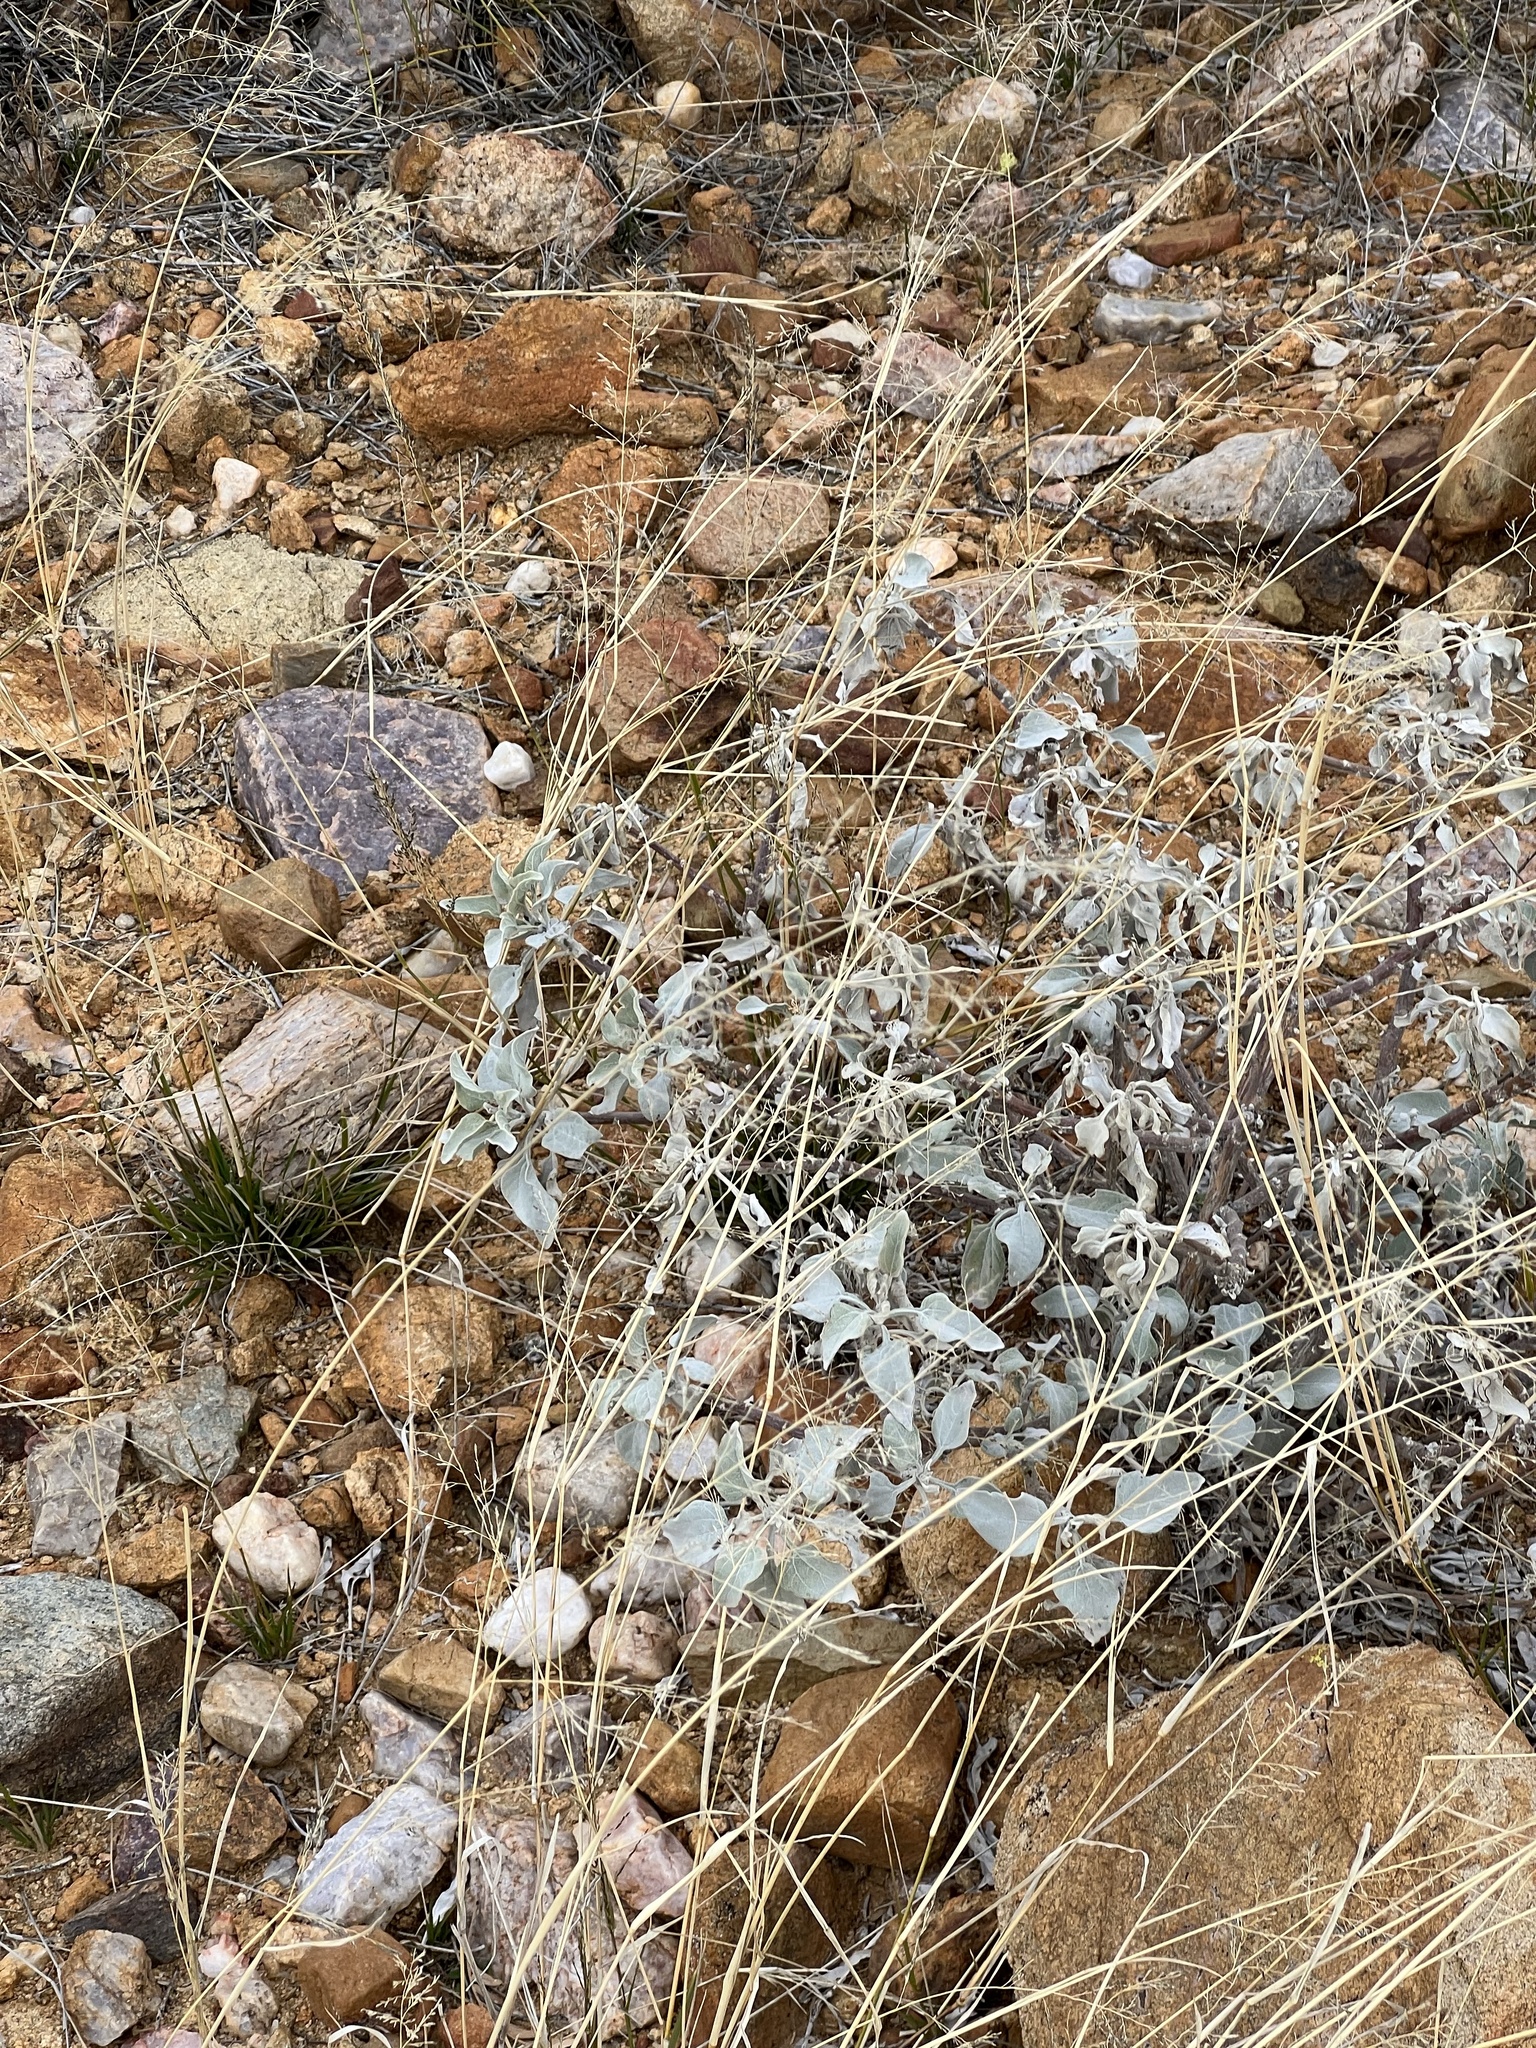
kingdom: Plantae
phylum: Tracheophyta
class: Magnoliopsida
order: Asterales
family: Asteraceae
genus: Encelia
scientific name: Encelia farinosa
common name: Brittlebush
